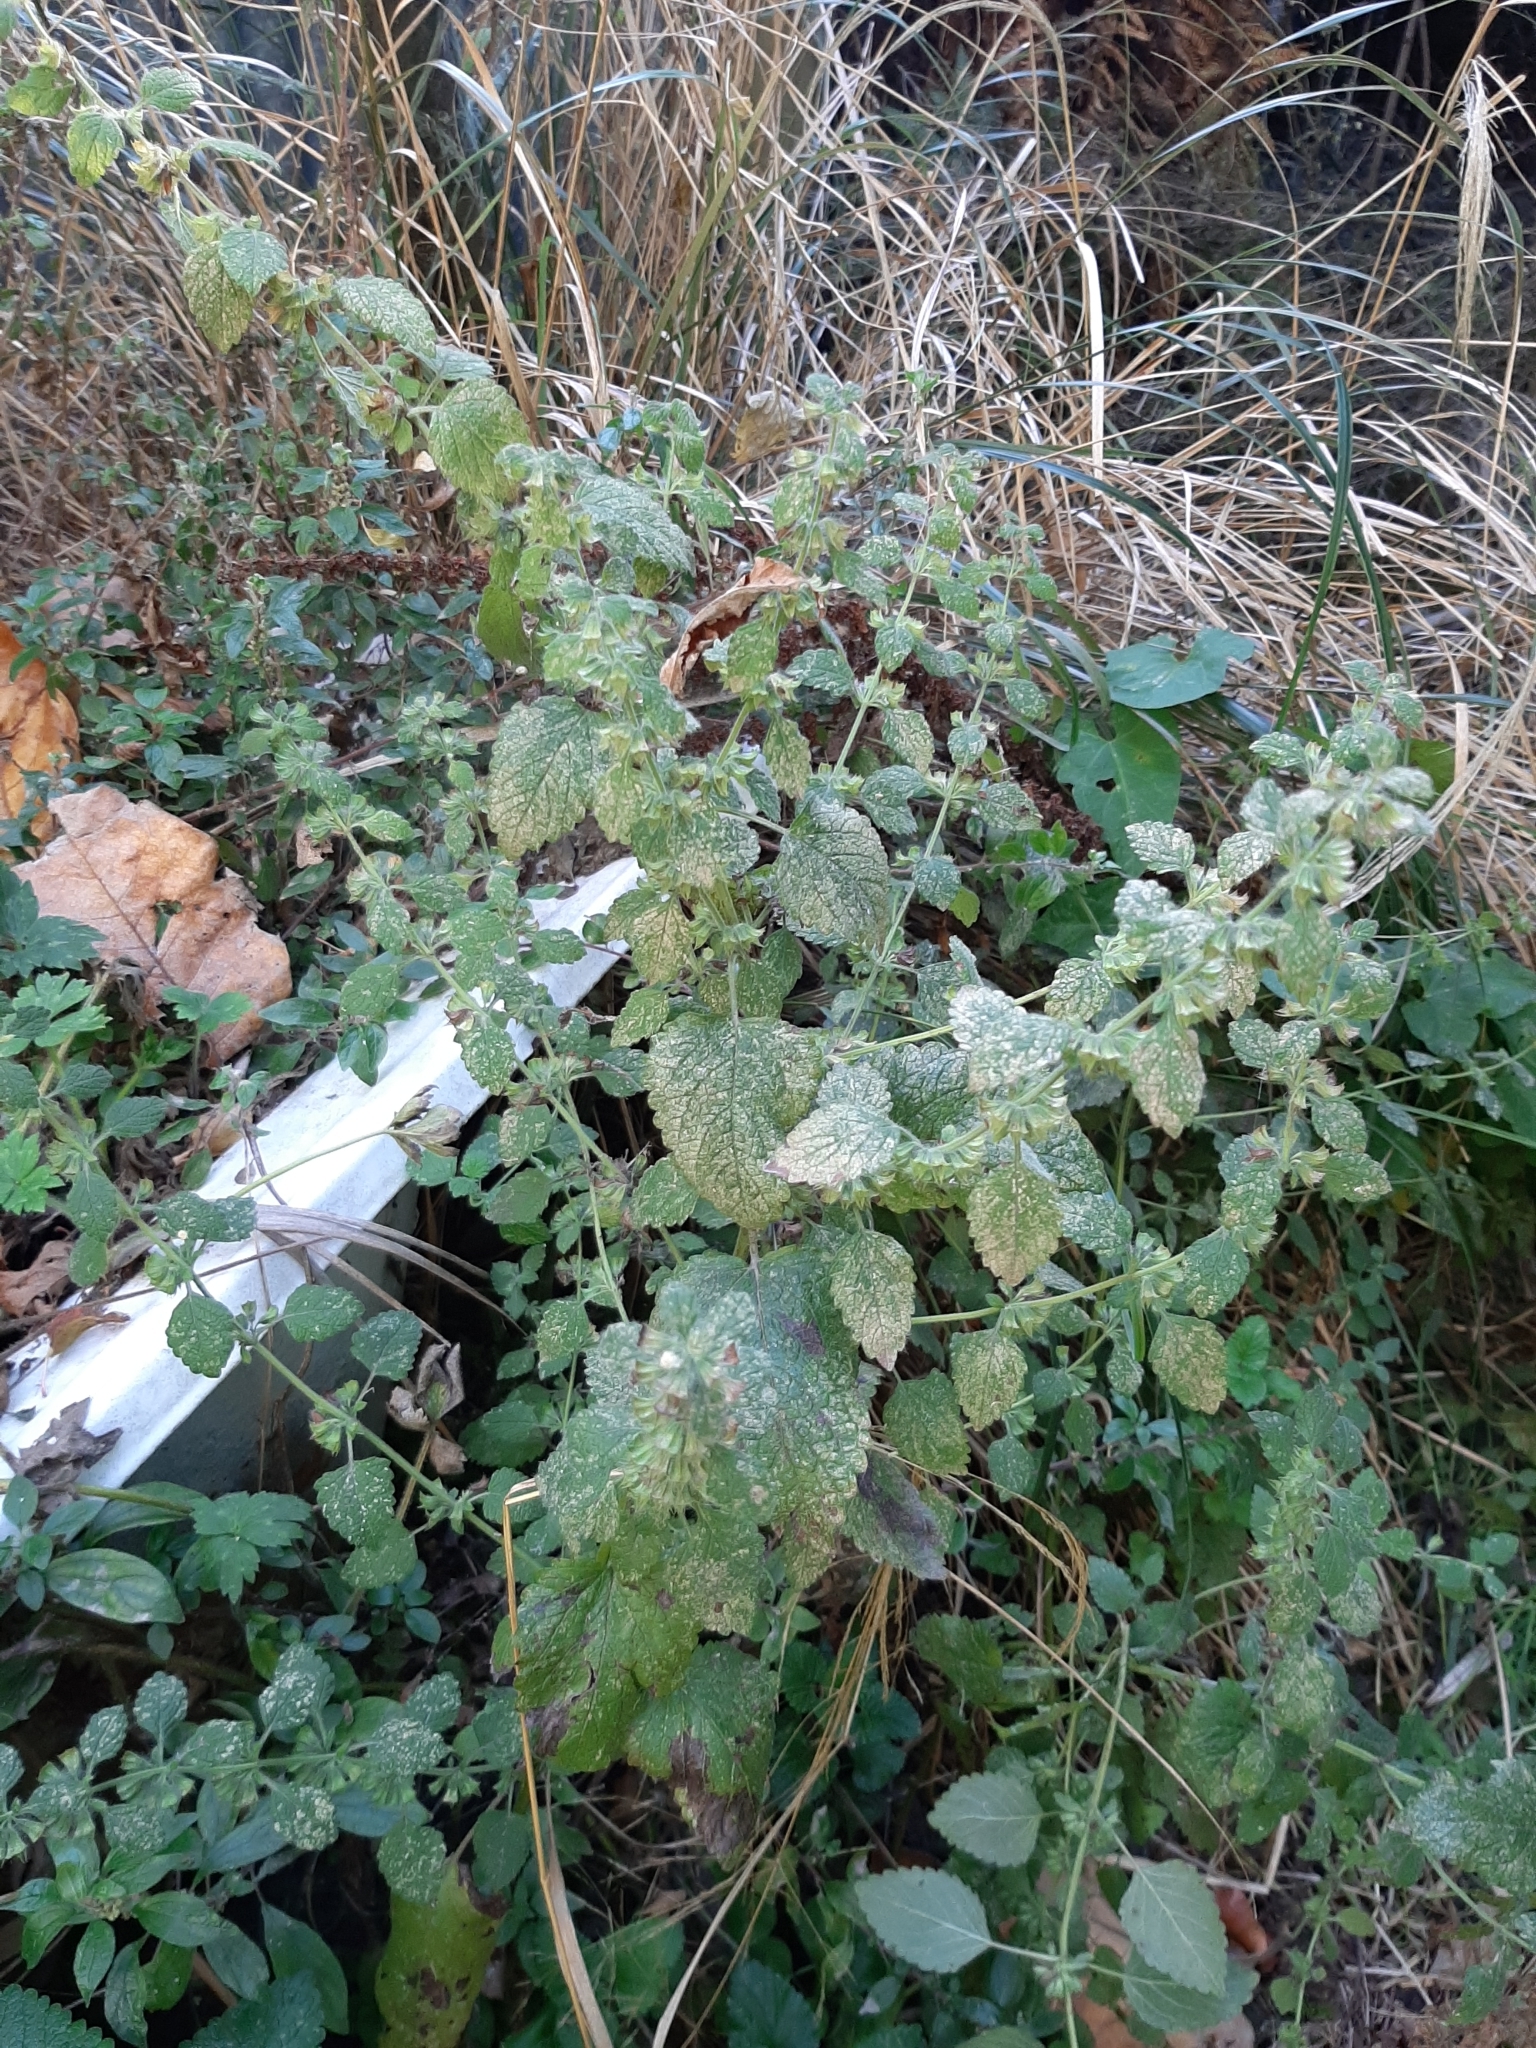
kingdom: Plantae
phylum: Tracheophyta
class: Magnoliopsida
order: Lamiales
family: Lamiaceae
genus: Melissa
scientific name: Melissa officinalis
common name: Balm
